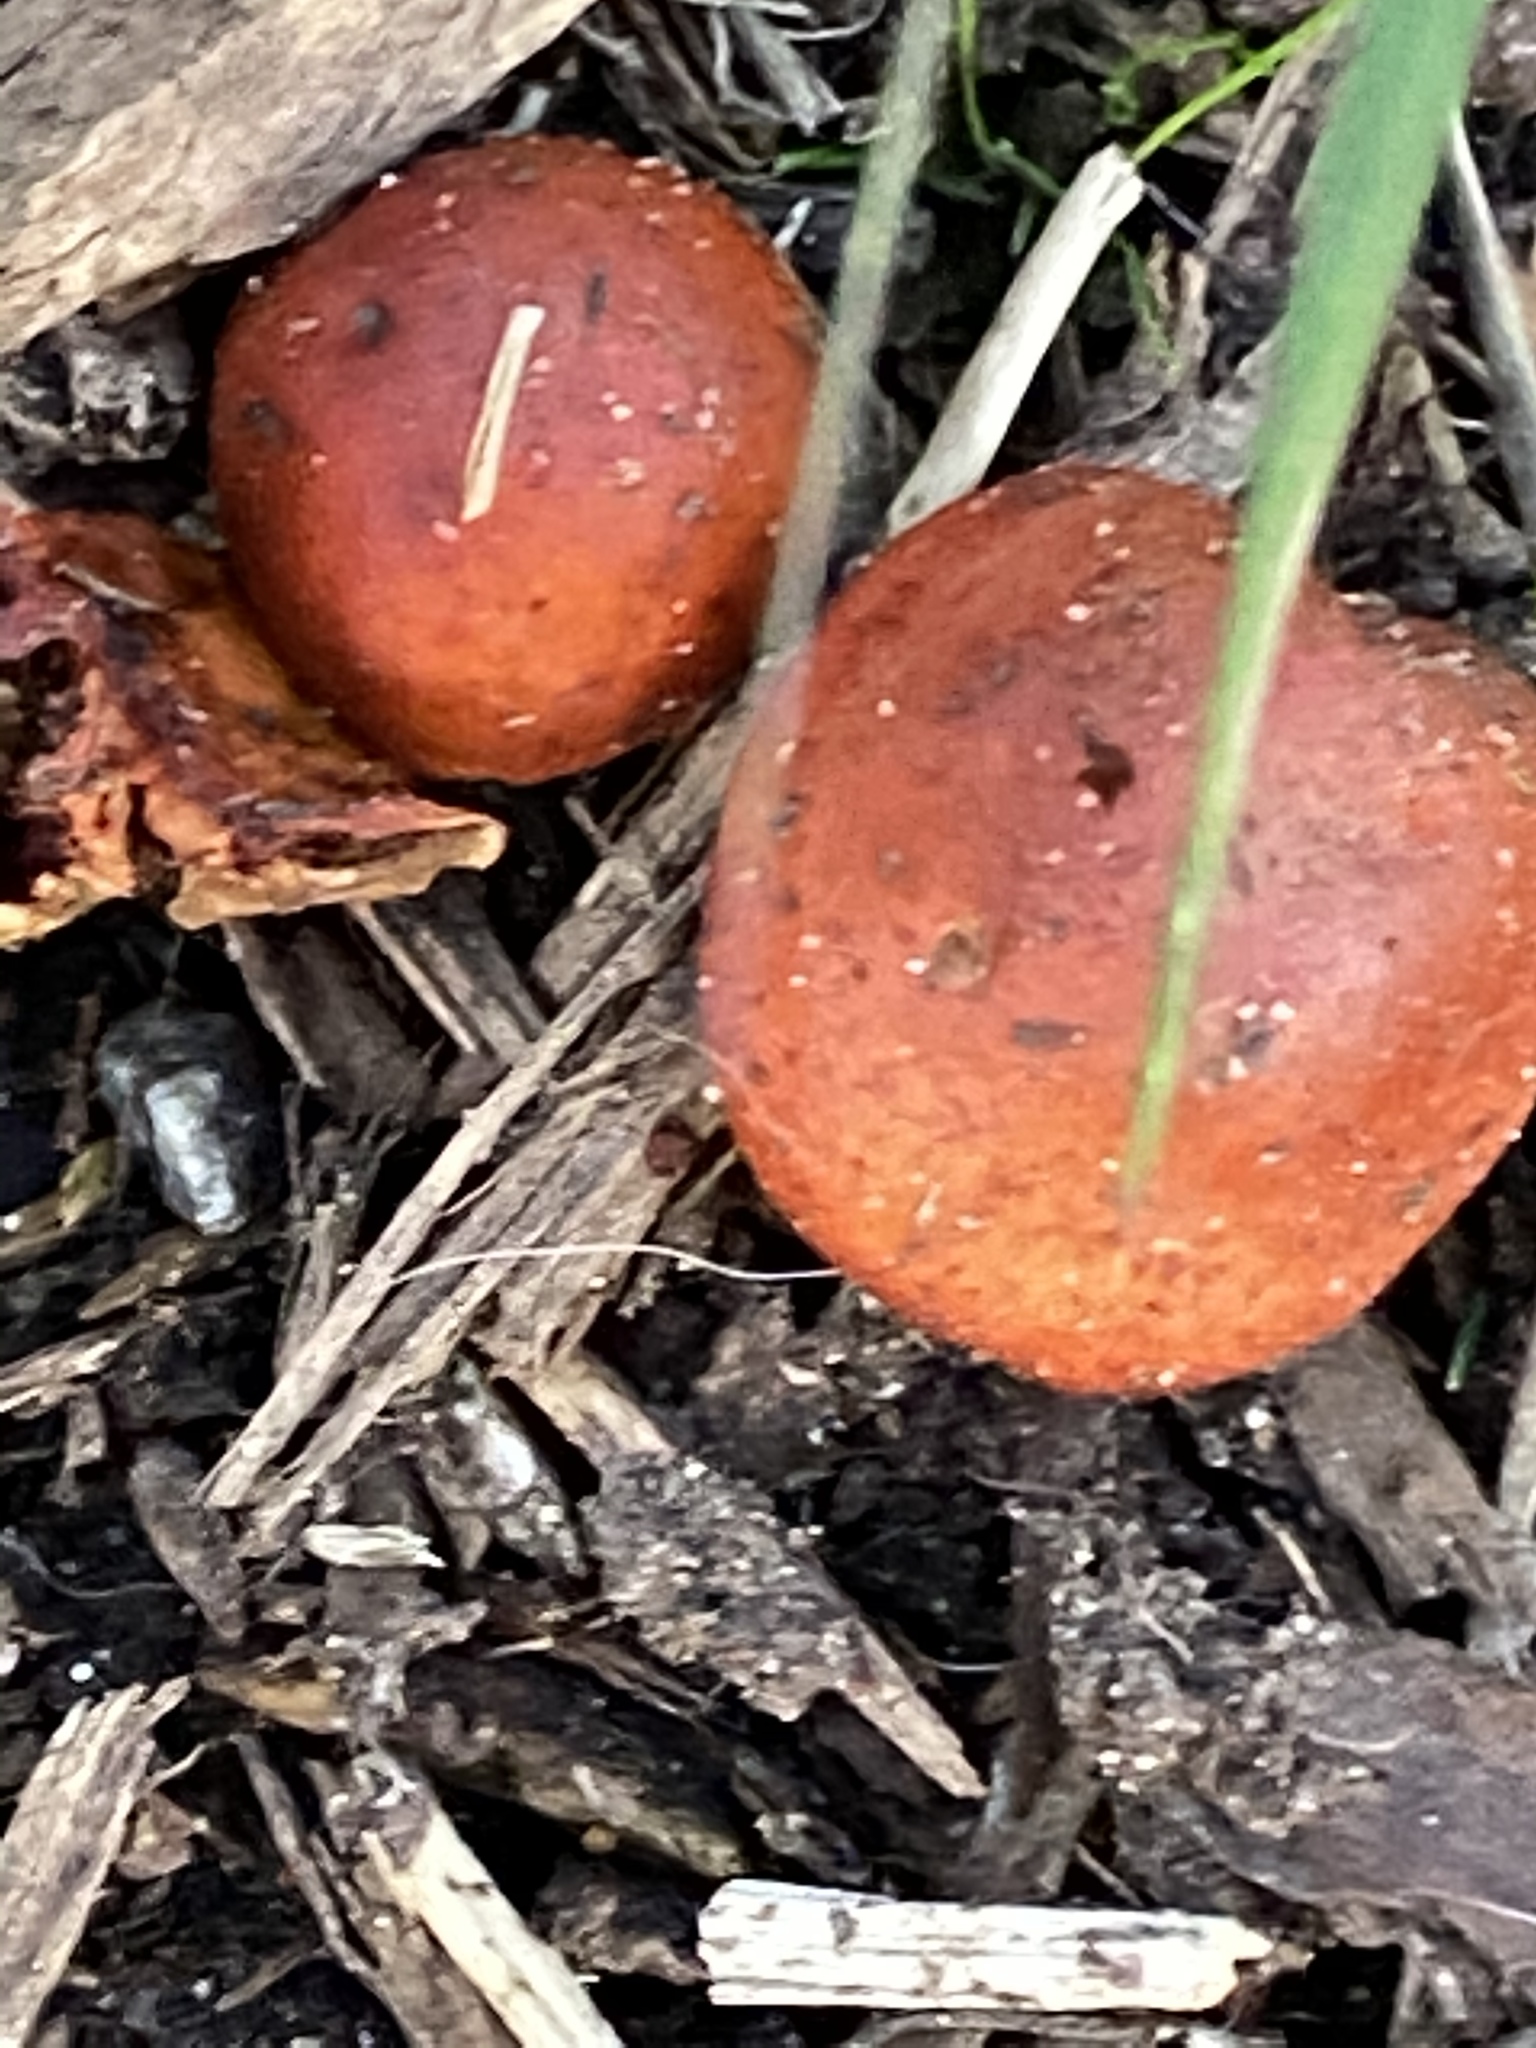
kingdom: Fungi
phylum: Basidiomycota
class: Agaricomycetes
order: Agaricales
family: Strophariaceae
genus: Leratiomyces
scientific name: Leratiomyces ceres
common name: Redlead roundhead
